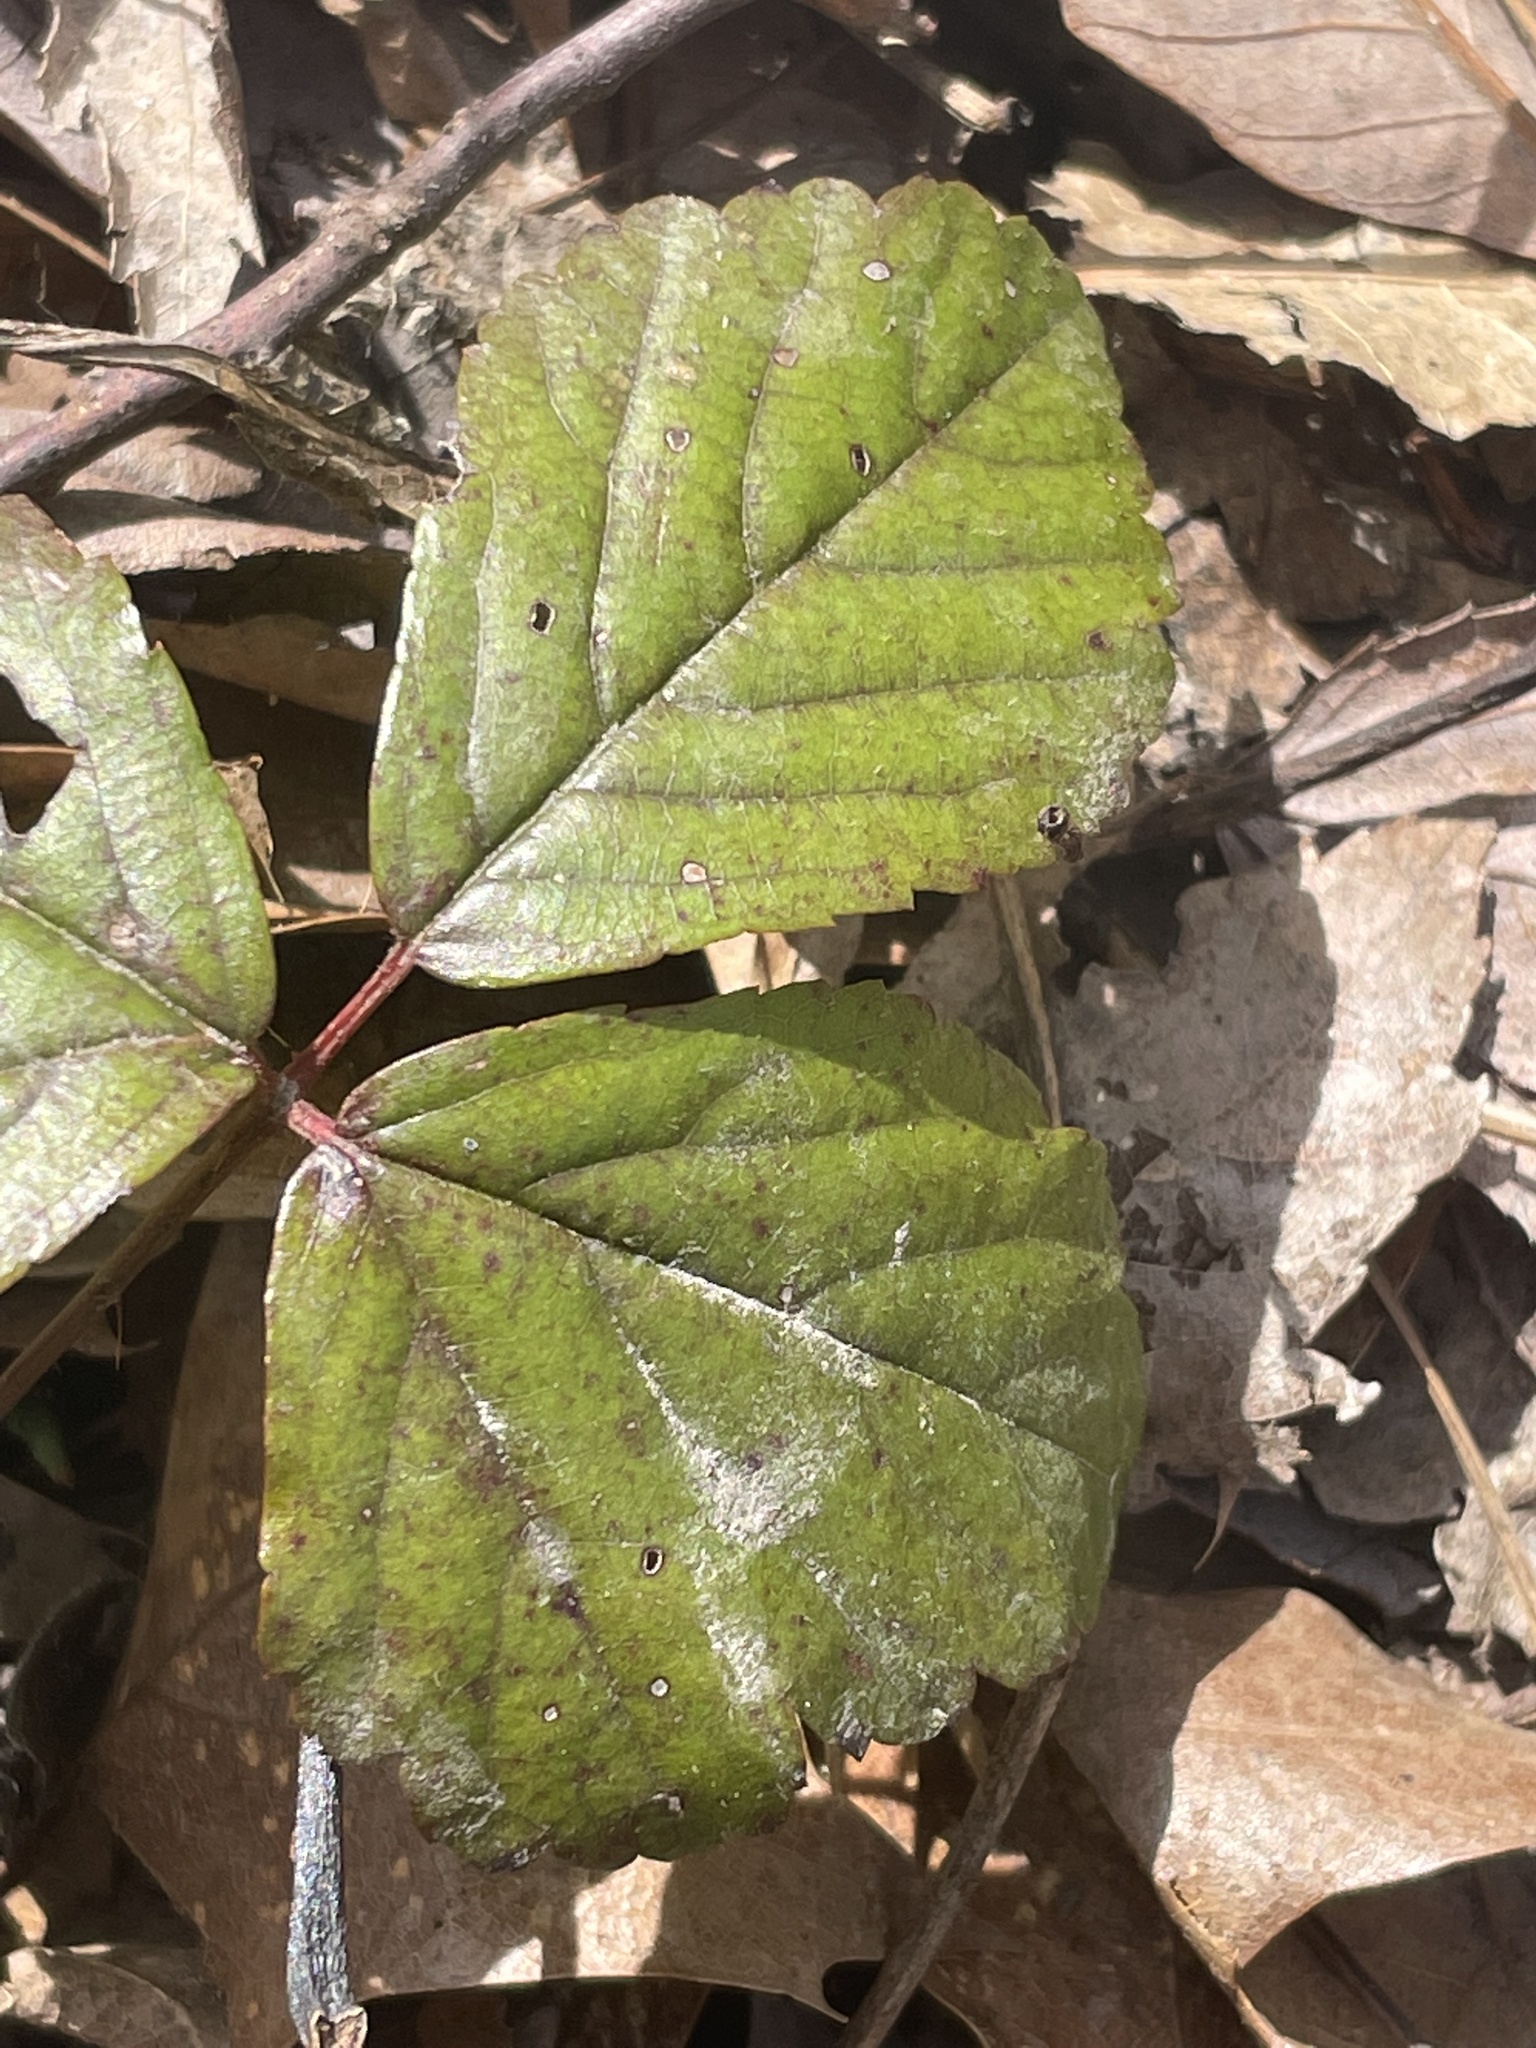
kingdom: Plantae
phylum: Tracheophyta
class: Magnoliopsida
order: Rosales
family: Rosaceae
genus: Rubus
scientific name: Rubus hispidus
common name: Running blackberry
